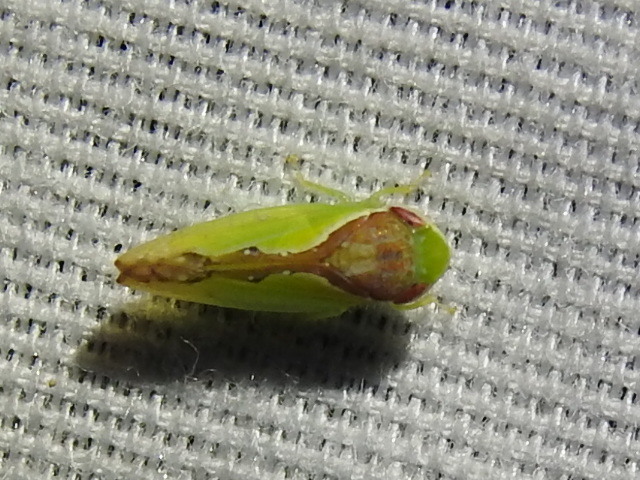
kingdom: Animalia
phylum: Arthropoda
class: Insecta
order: Hemiptera
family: Cicadellidae
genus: Omansobara ing
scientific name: Omansobara ing Omansobara palliolata
